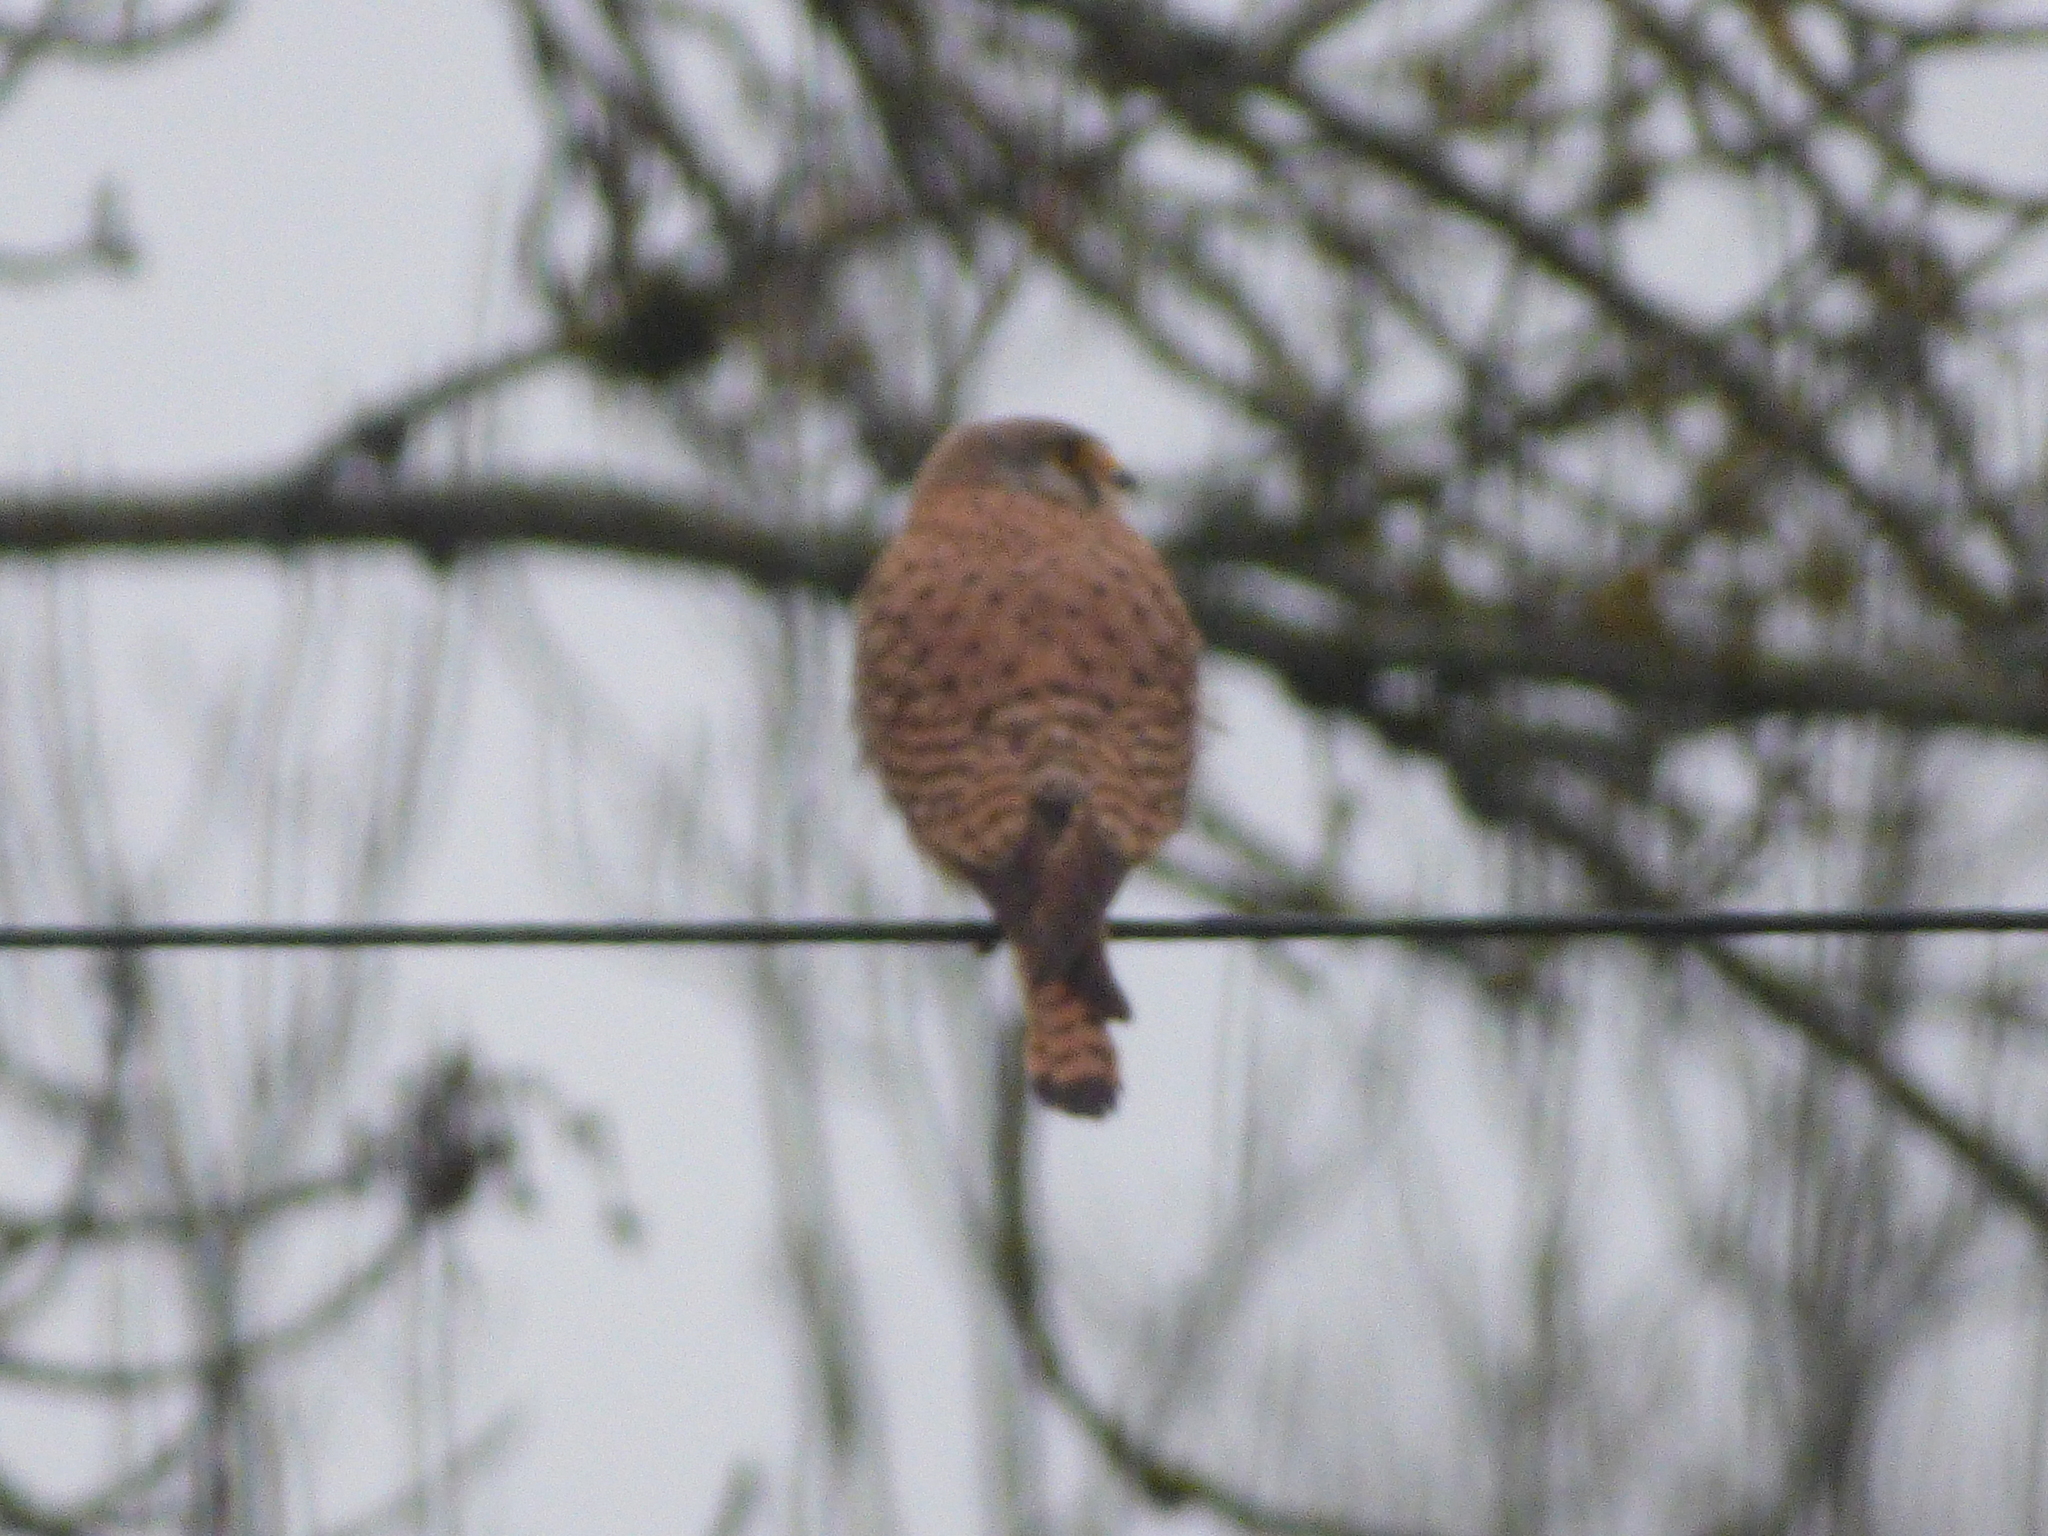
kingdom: Animalia
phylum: Chordata
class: Aves
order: Falconiformes
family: Falconidae
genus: Falco
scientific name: Falco tinnunculus
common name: Common kestrel
